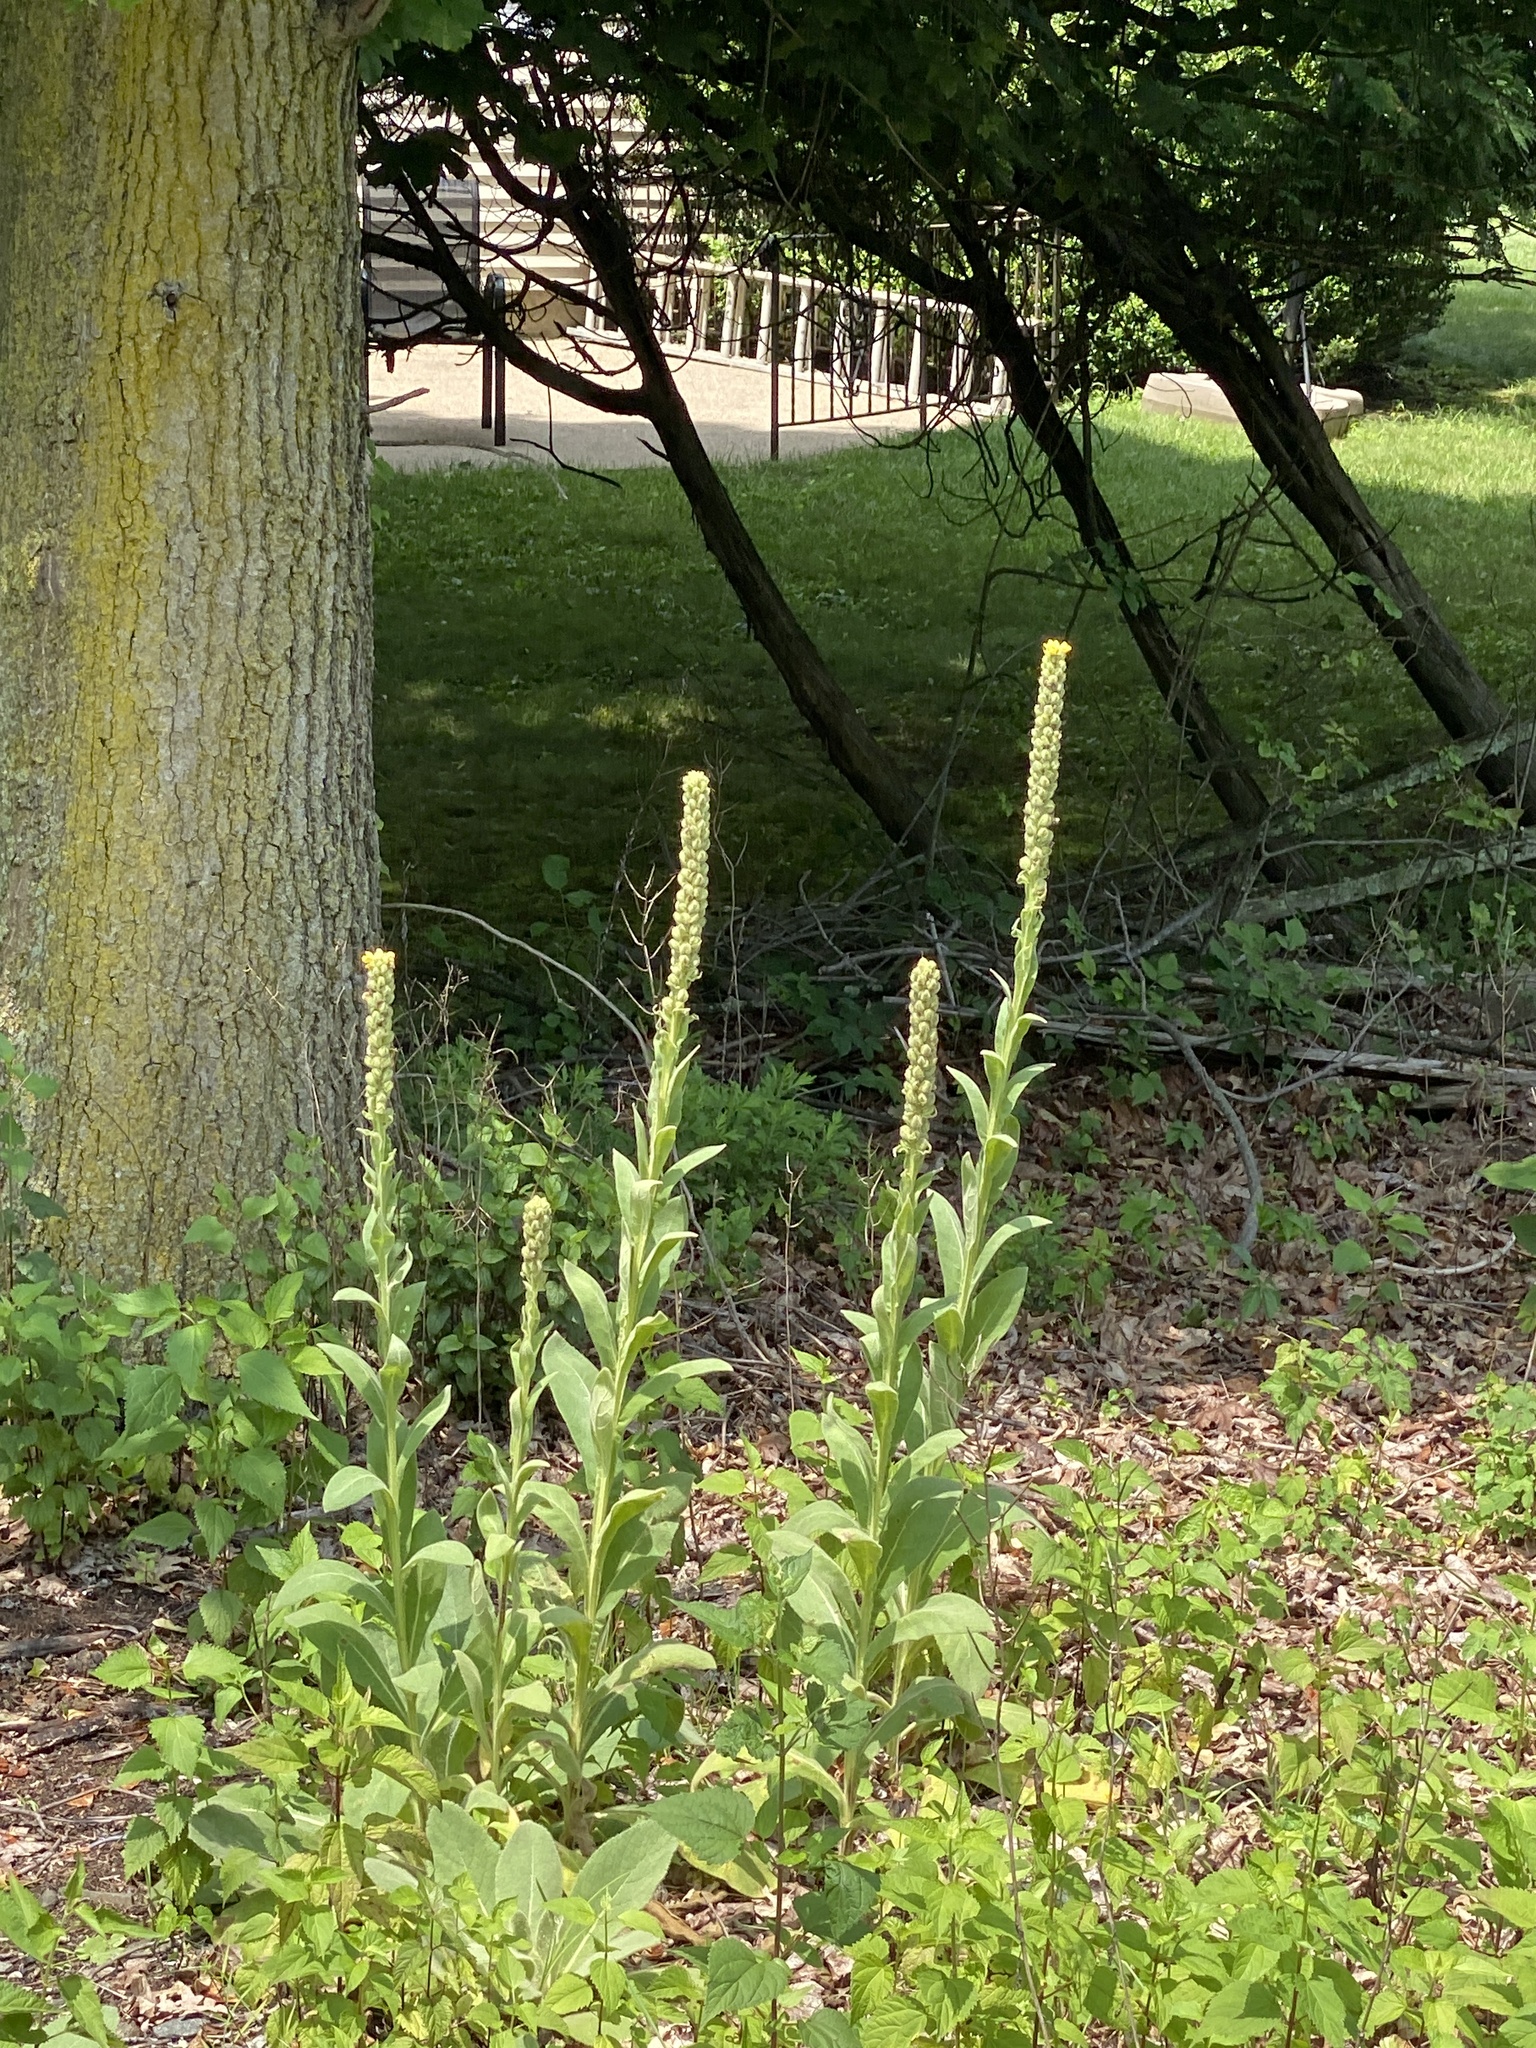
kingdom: Plantae
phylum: Tracheophyta
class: Magnoliopsida
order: Lamiales
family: Scrophulariaceae
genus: Verbascum
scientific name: Verbascum thapsus
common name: Common mullein
